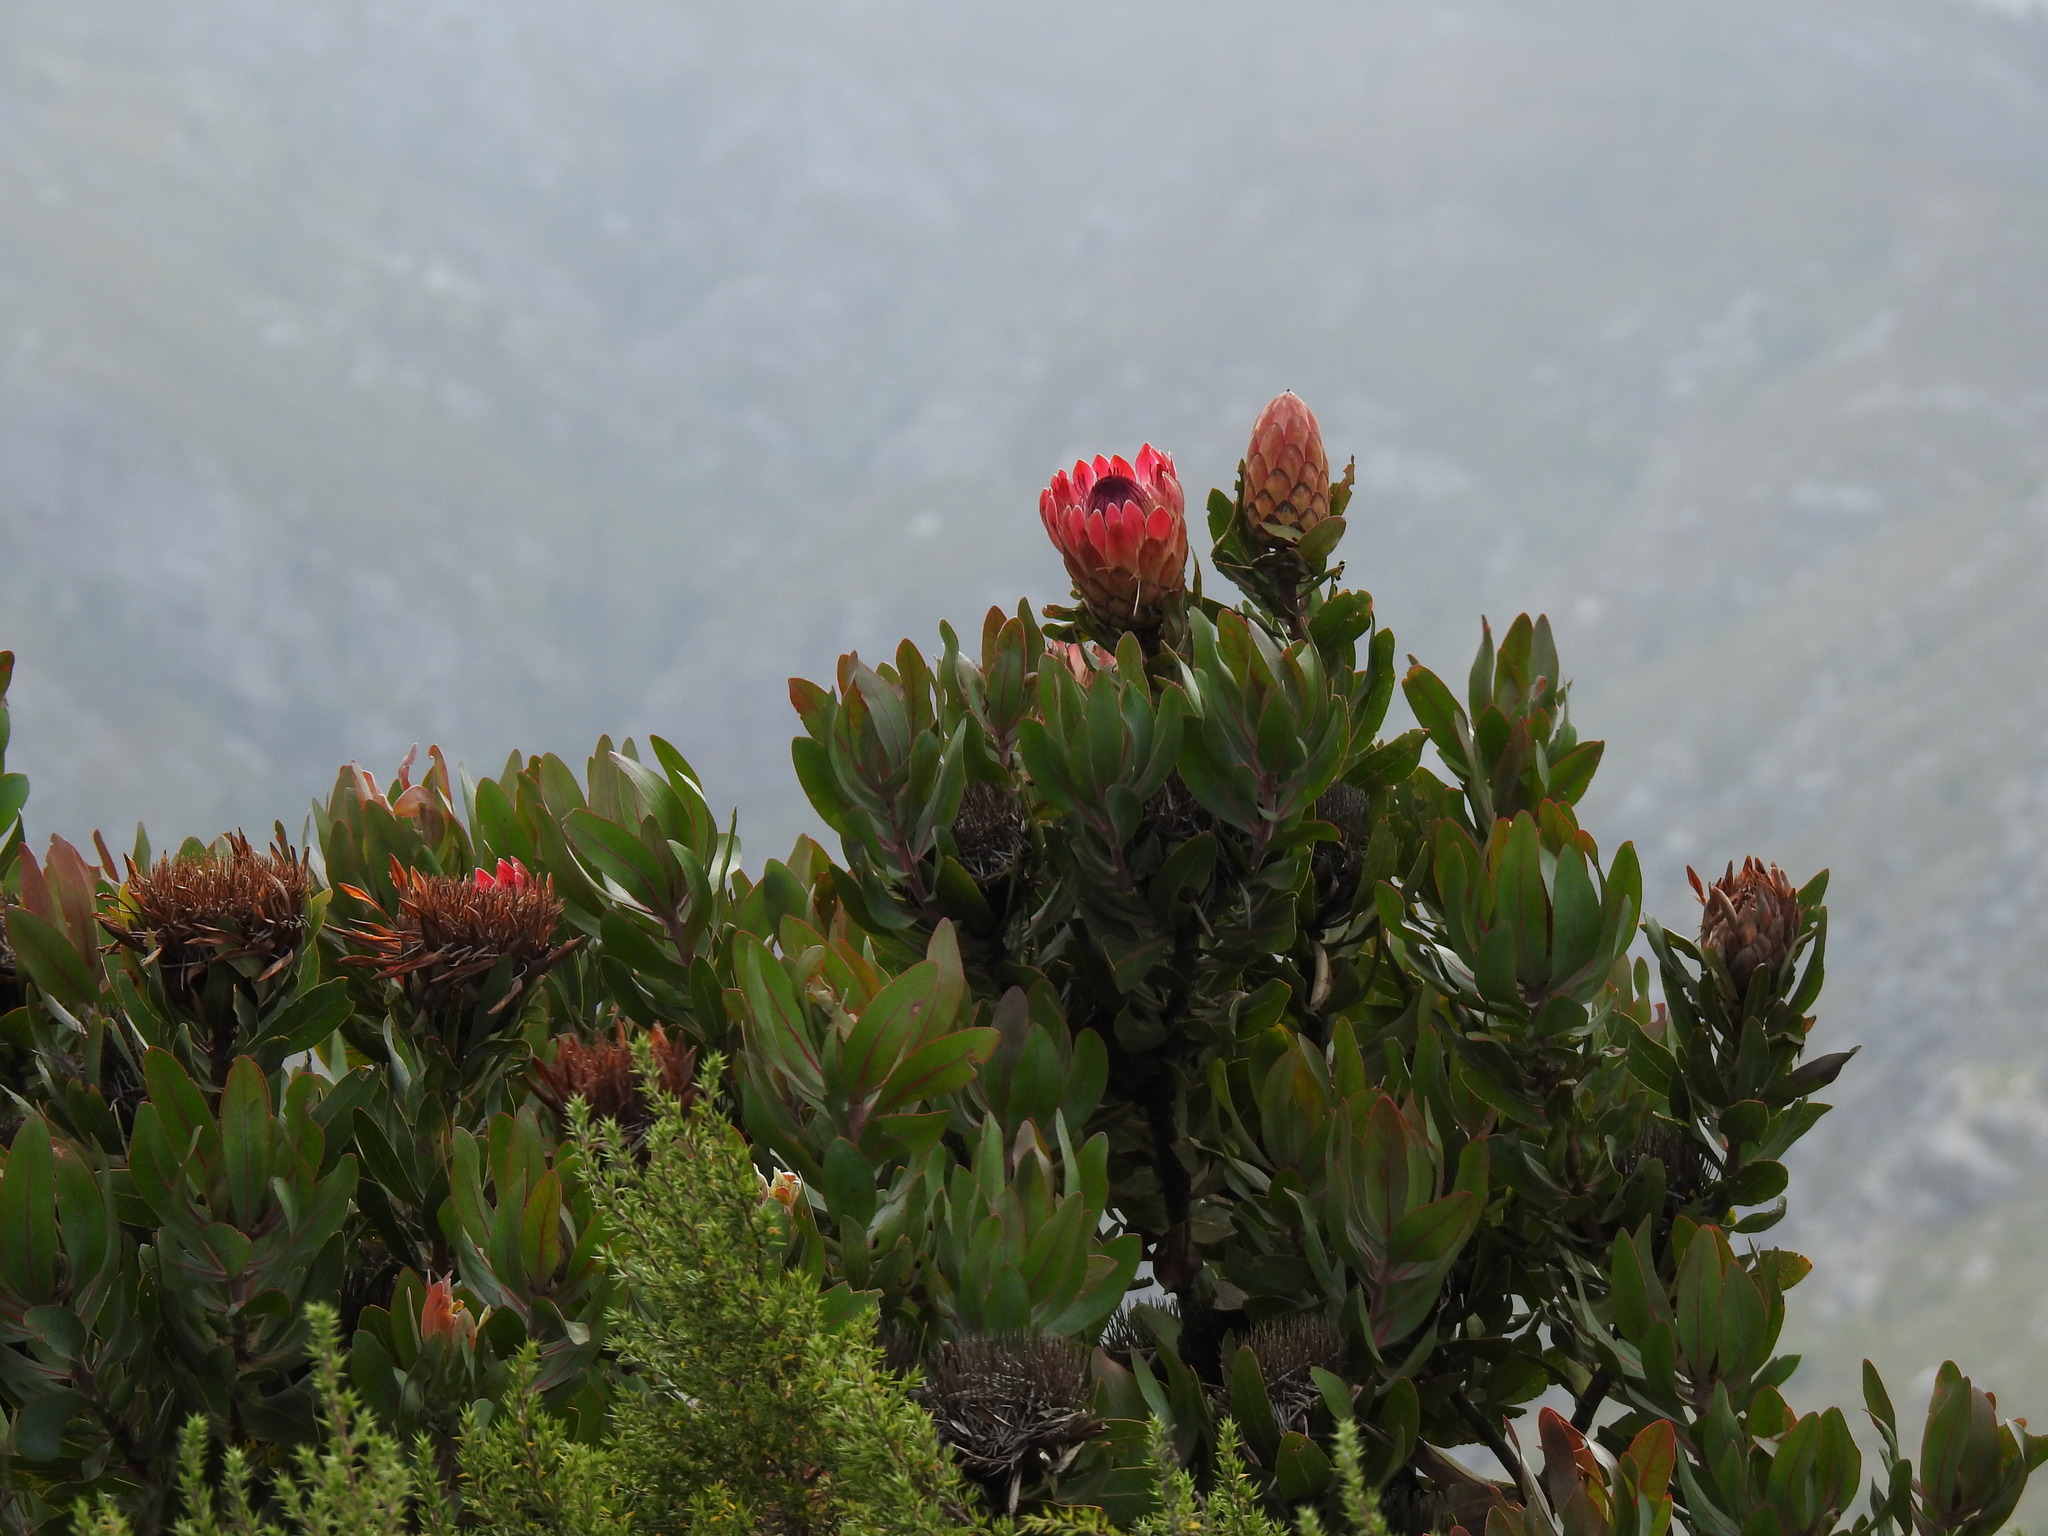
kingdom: Plantae
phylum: Tracheophyta
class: Magnoliopsida
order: Proteales
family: Proteaceae
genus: Protea
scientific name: Protea eximia
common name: Broad-leaved sugarbush
